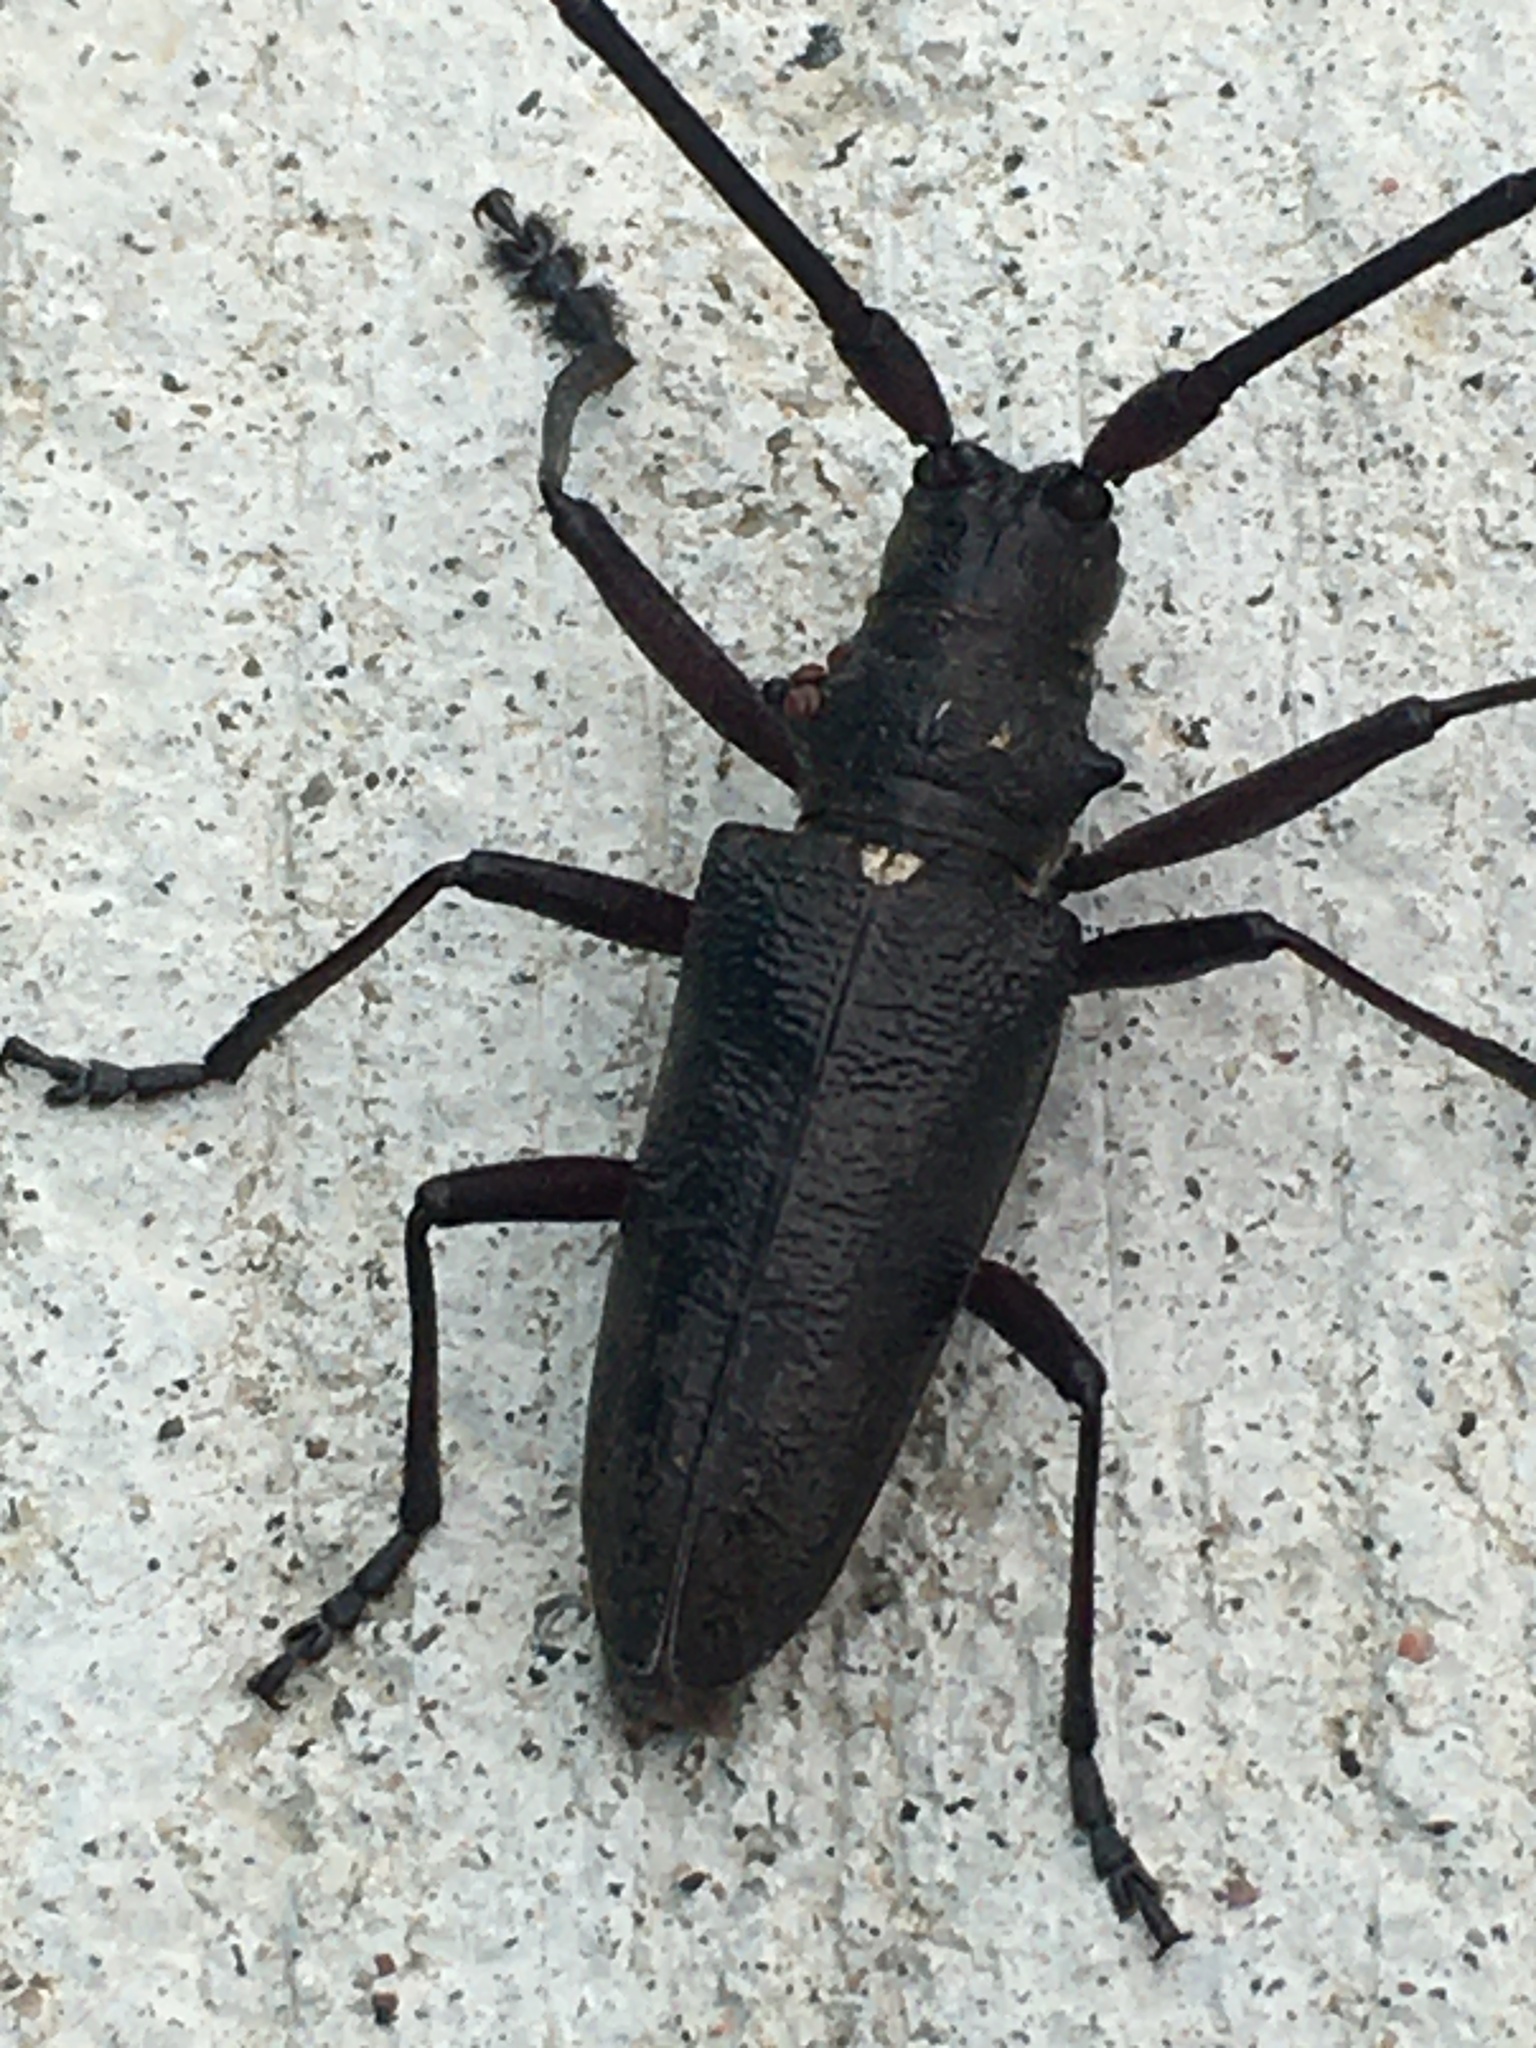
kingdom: Animalia
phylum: Arthropoda
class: Insecta
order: Coleoptera
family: Cerambycidae
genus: Monochamus
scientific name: Monochamus scutellatus
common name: White-spotted sawyer beetle
